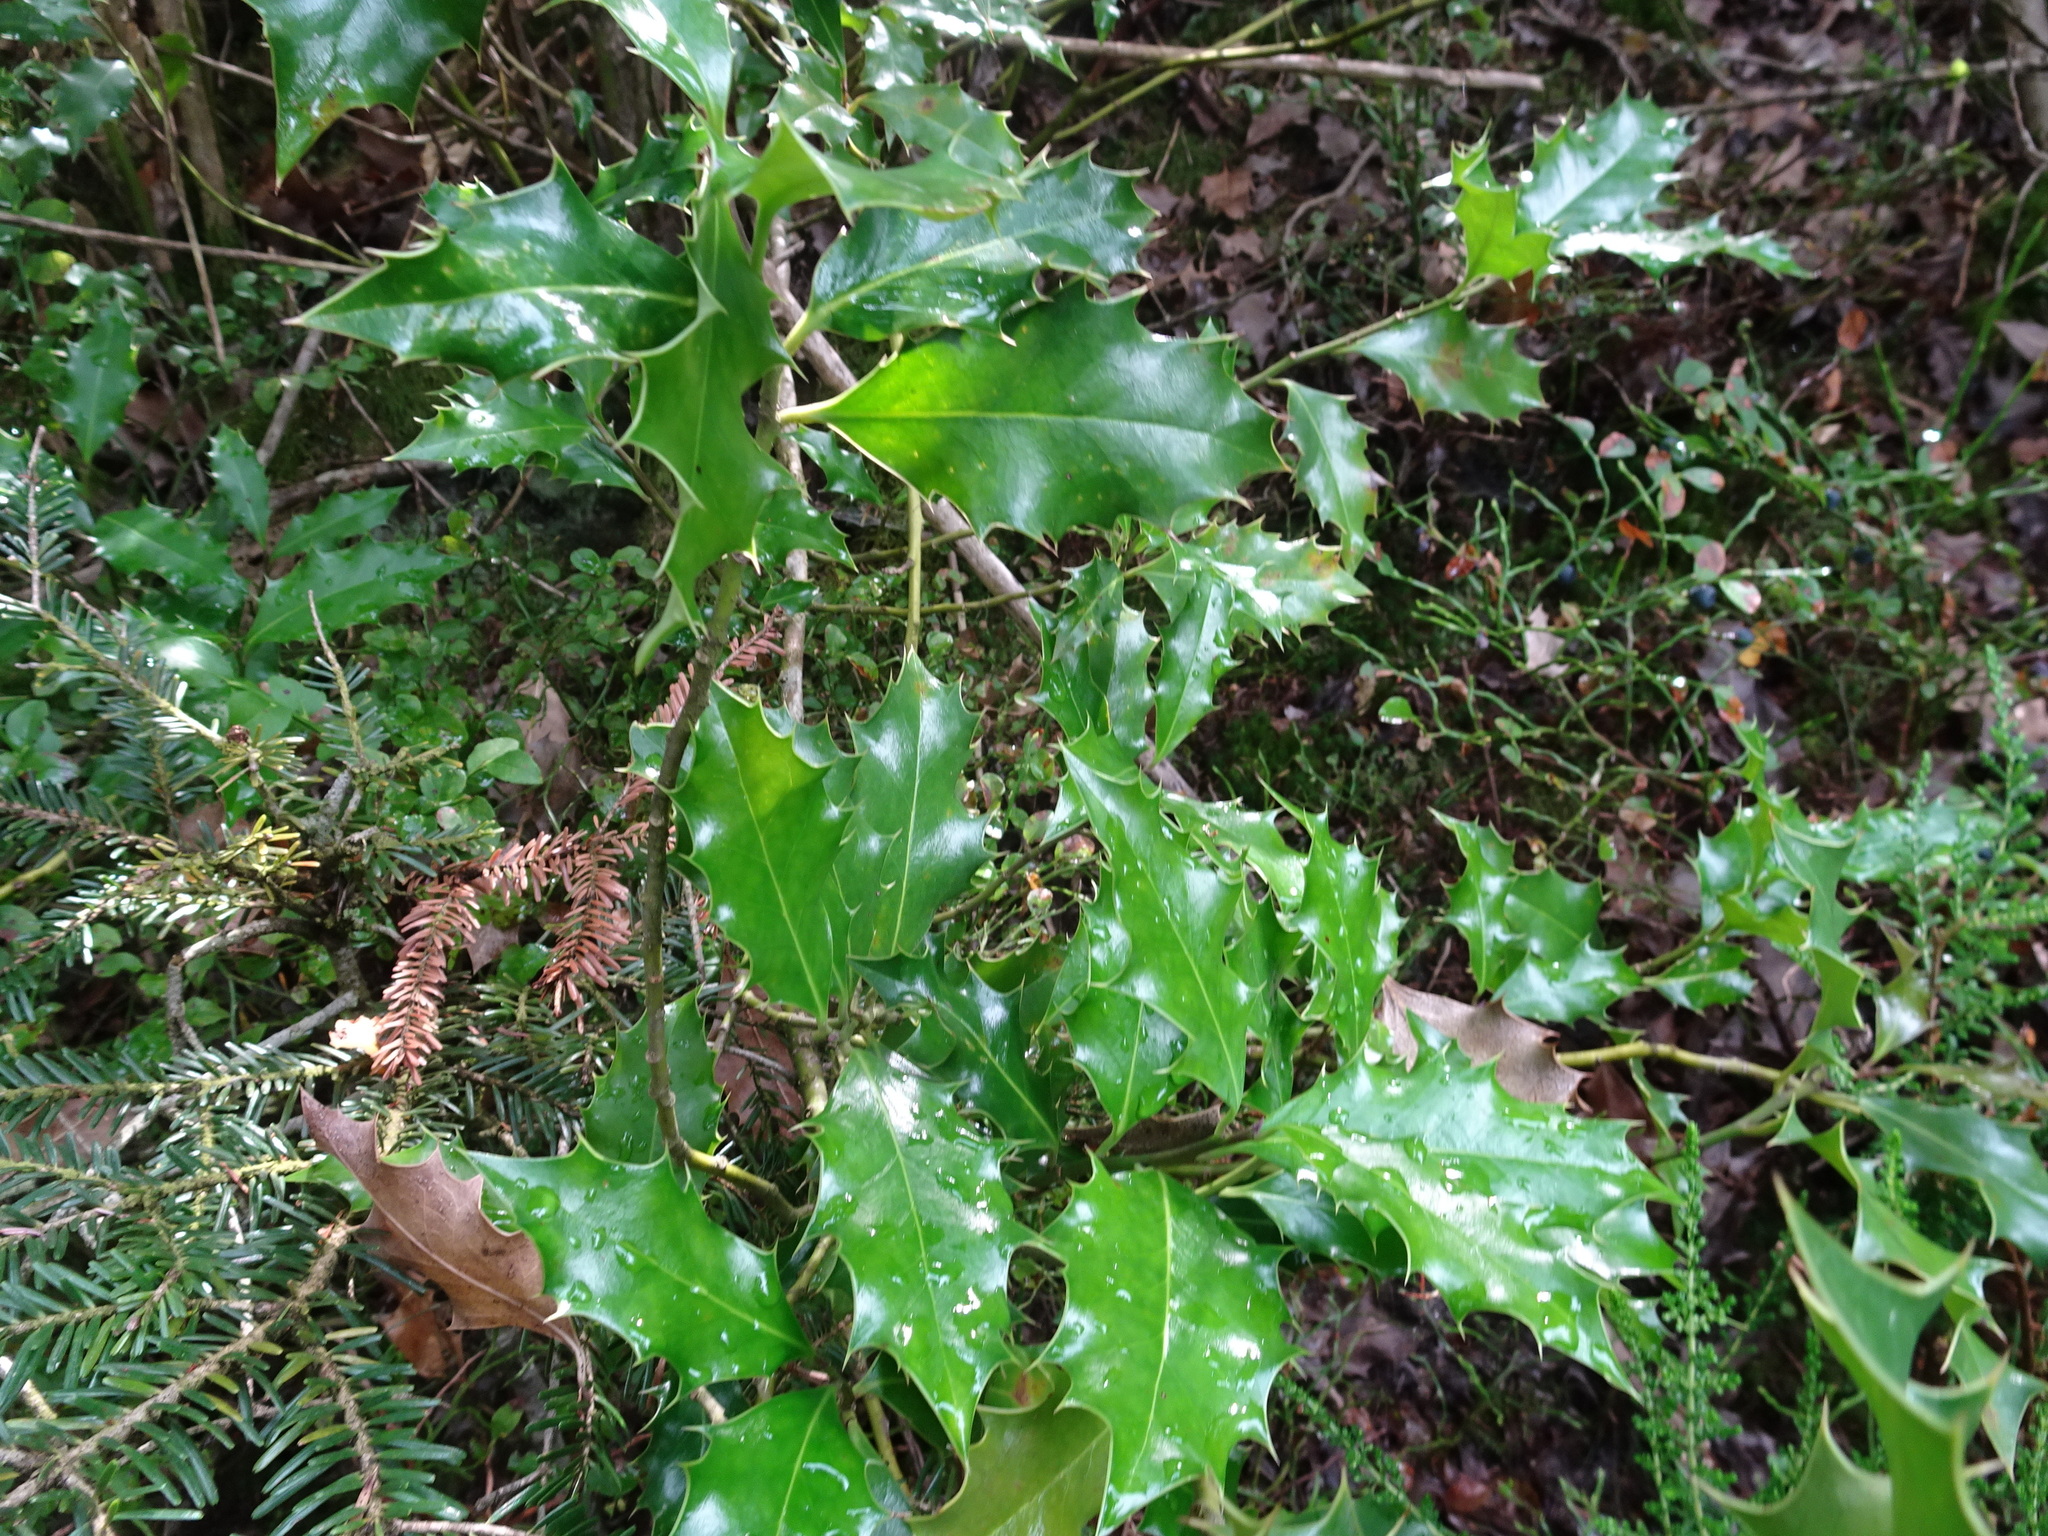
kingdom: Plantae
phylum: Tracheophyta
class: Magnoliopsida
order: Aquifoliales
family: Aquifoliaceae
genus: Ilex
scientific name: Ilex aquifolium
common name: English holly
